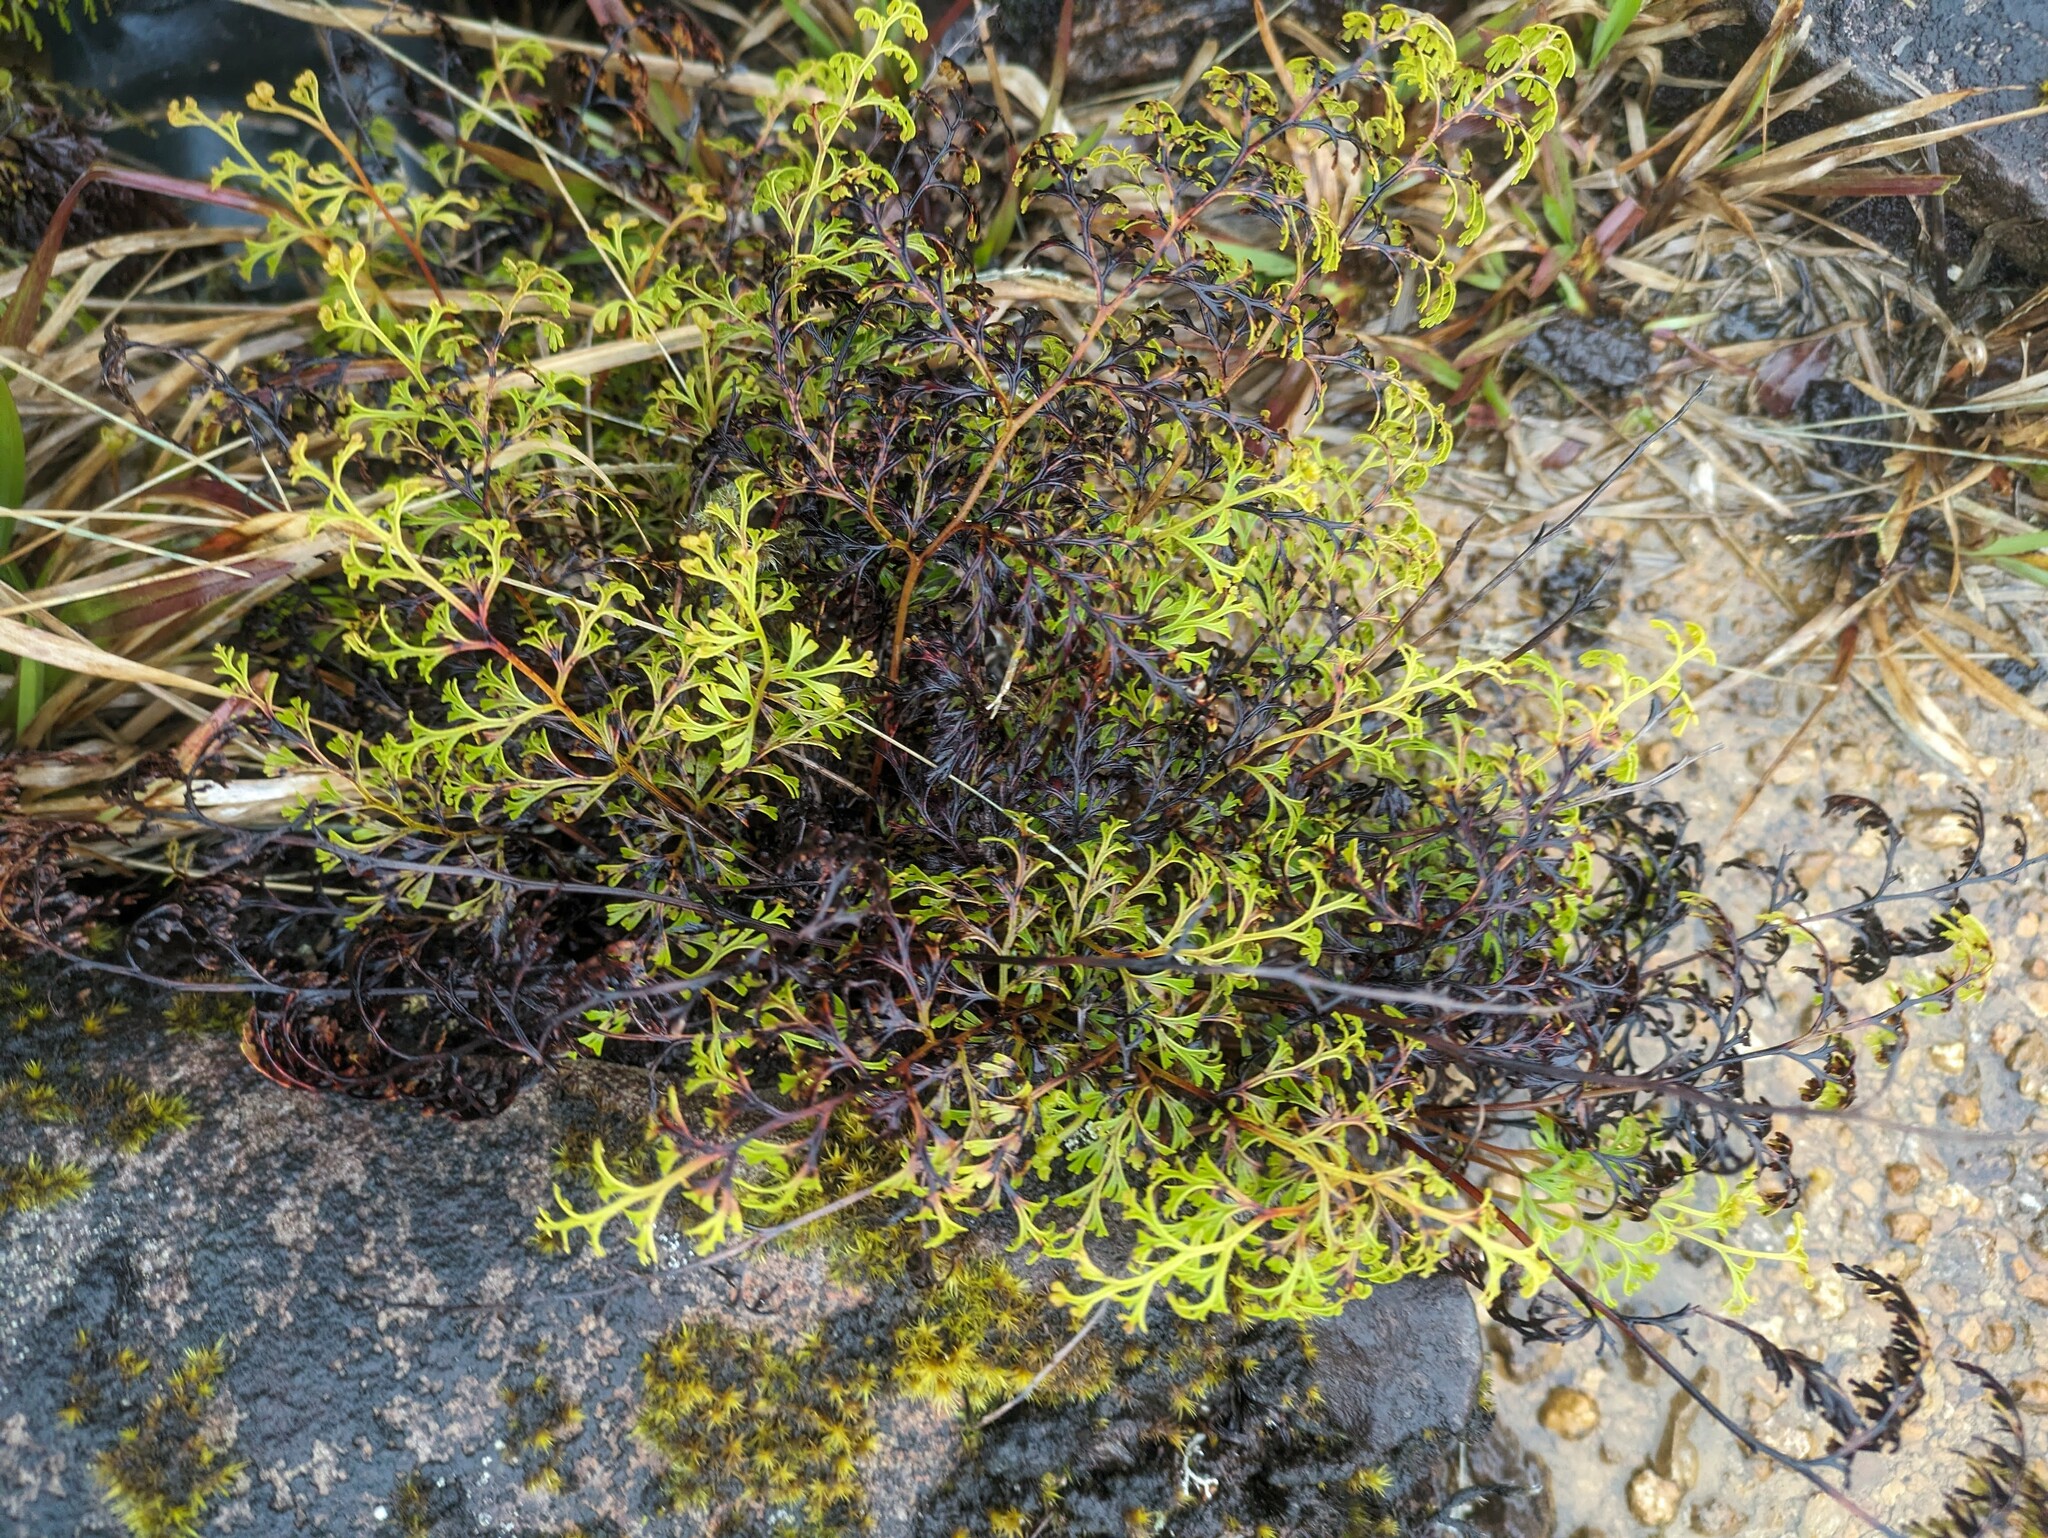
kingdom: Plantae
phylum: Tracheophyta
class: Polypodiopsida
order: Polypodiales
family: Lindsaeaceae
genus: Odontosoria
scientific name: Odontosoria chinensis
